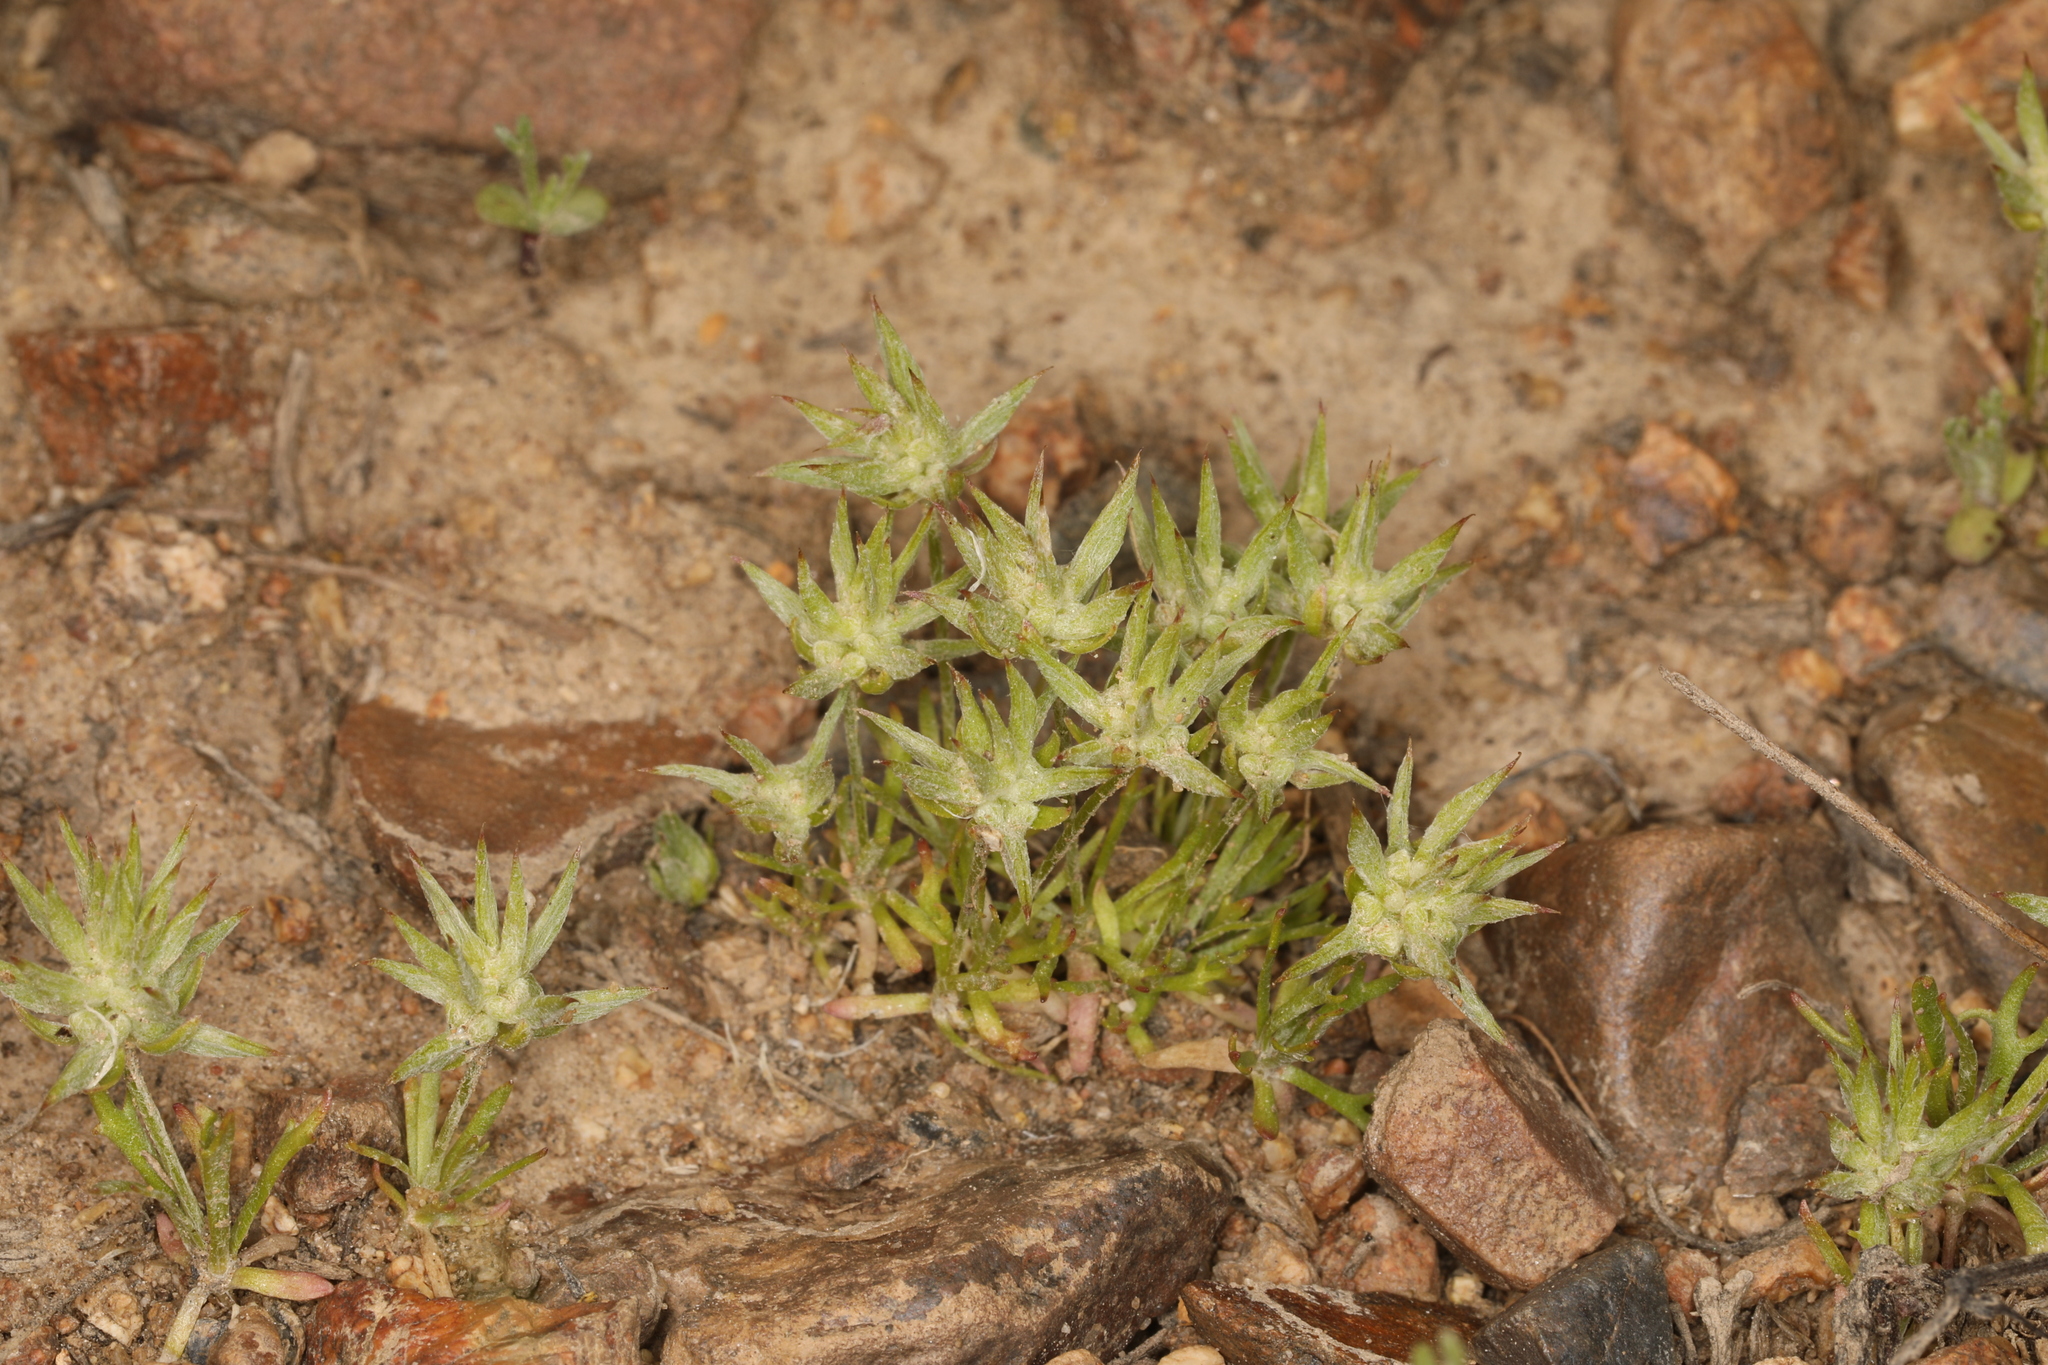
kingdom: Plantae
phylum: Tracheophyta
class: Magnoliopsida
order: Ranunculales
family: Ranunculaceae
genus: Ceratocephala
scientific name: Ceratocephala orthoceras
